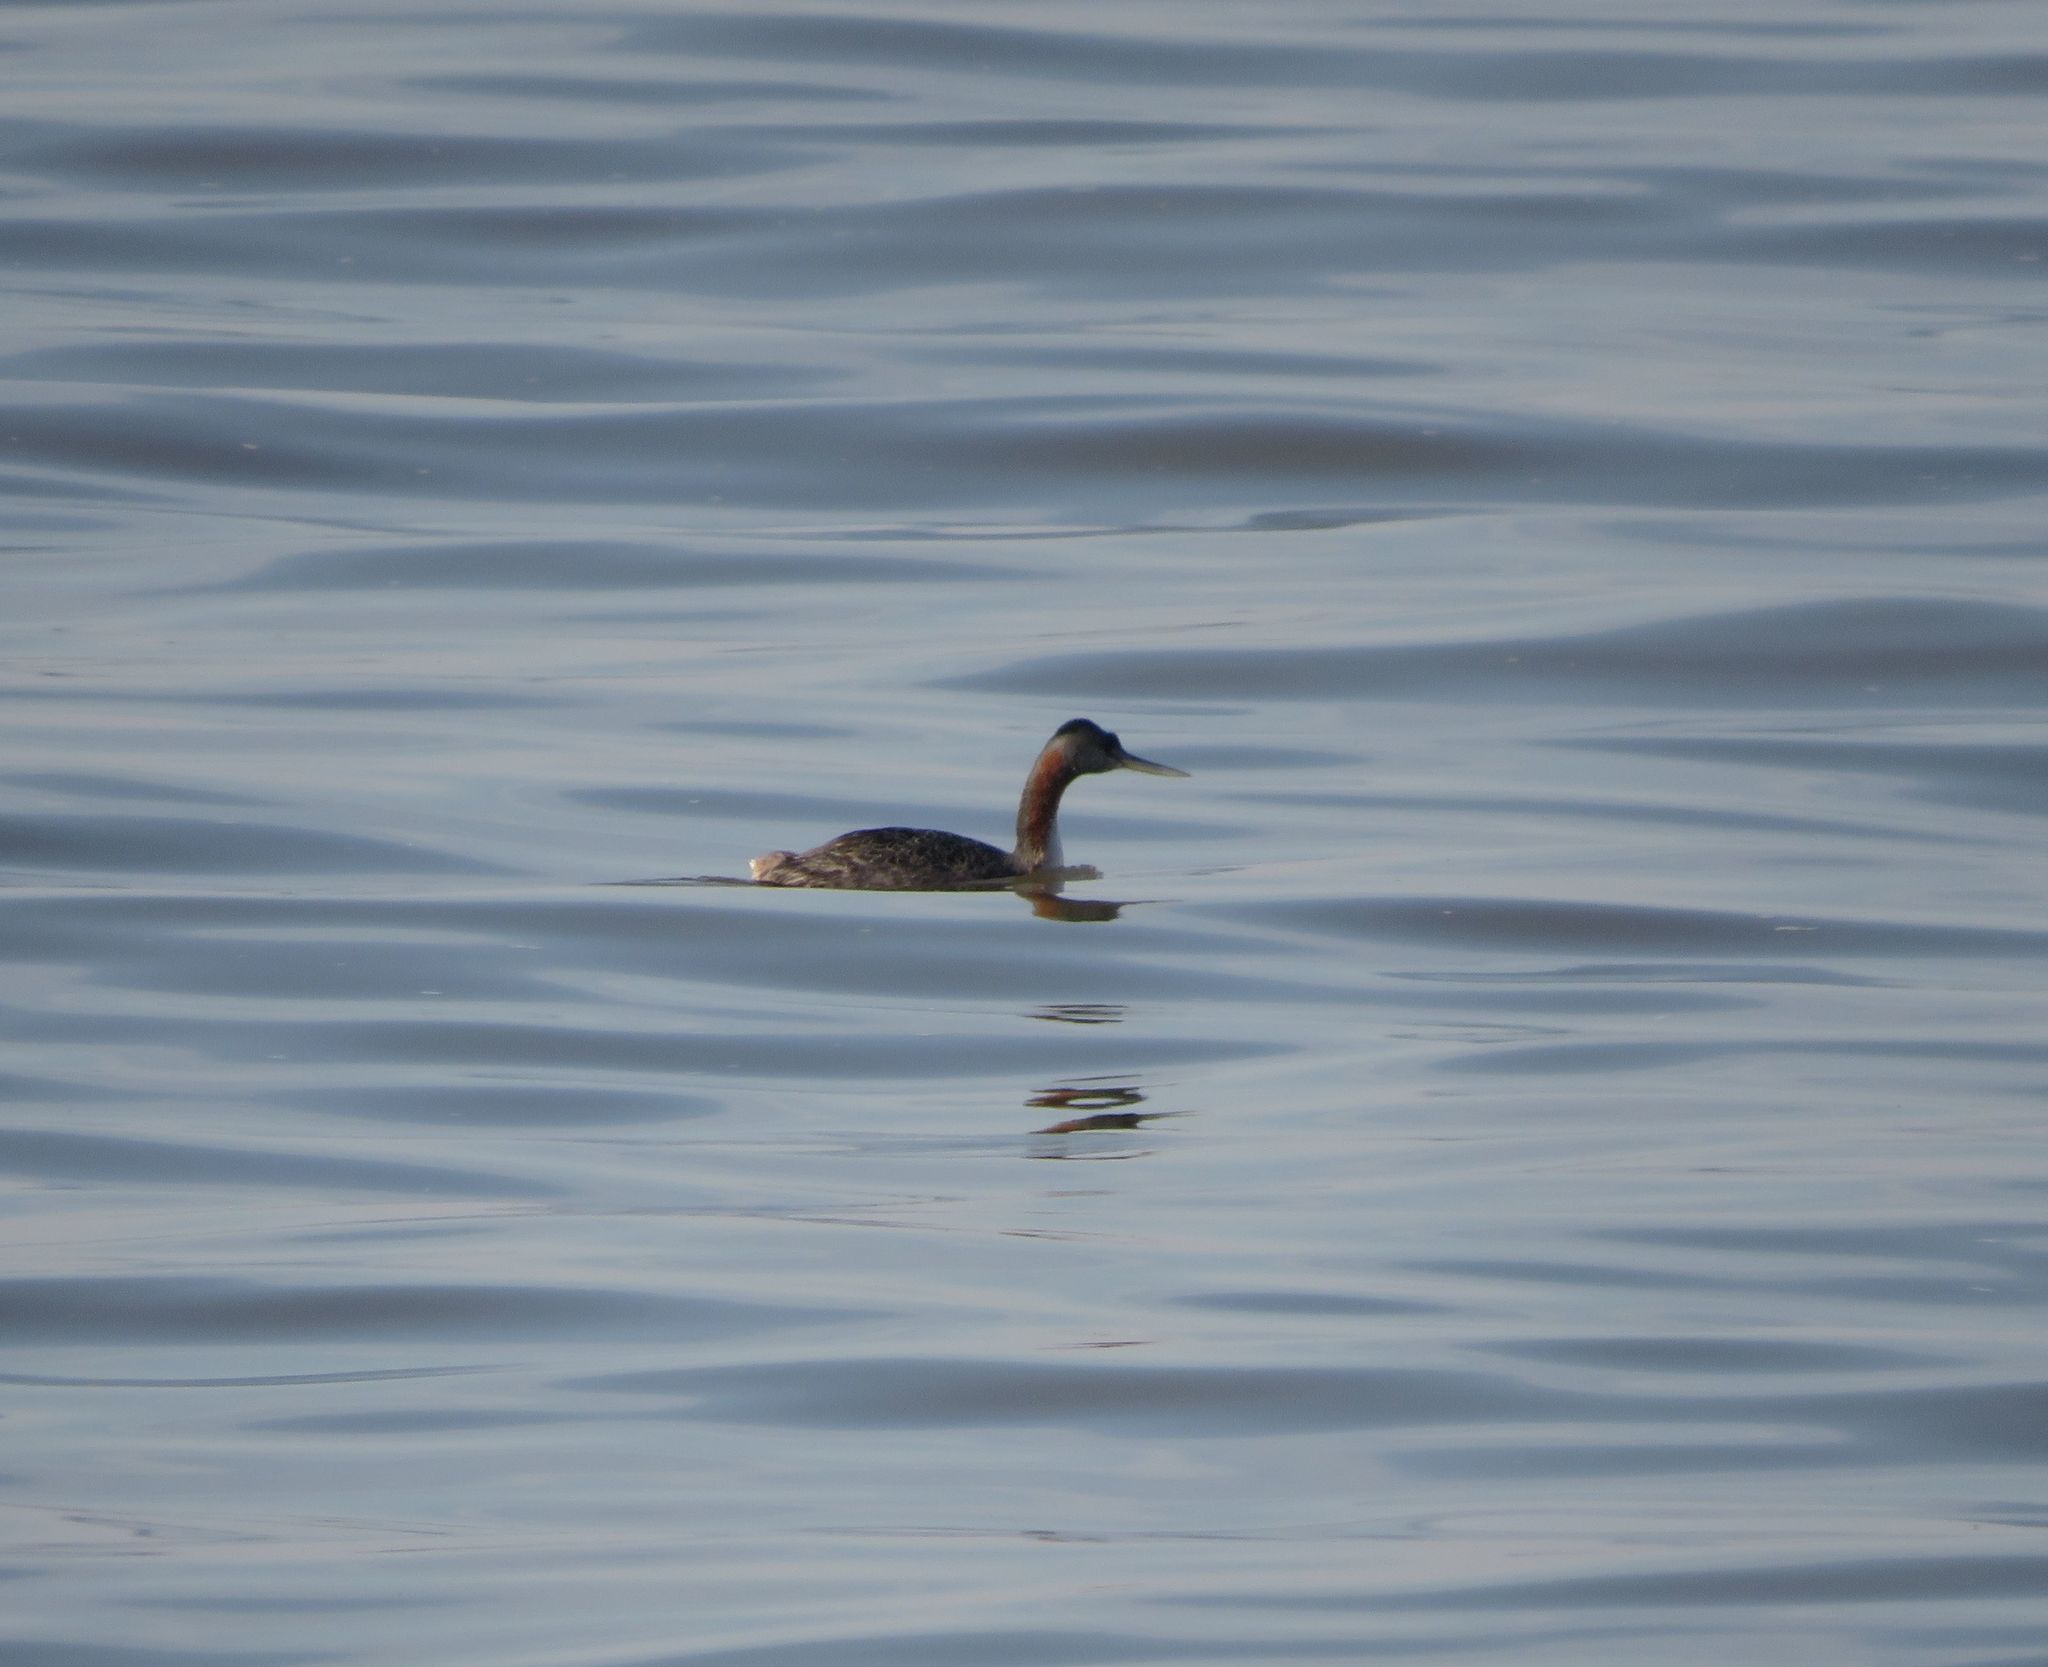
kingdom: Animalia
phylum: Chordata
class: Aves
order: Podicipediformes
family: Podicipedidae
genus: Podiceps
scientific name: Podiceps major
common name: Great grebe
